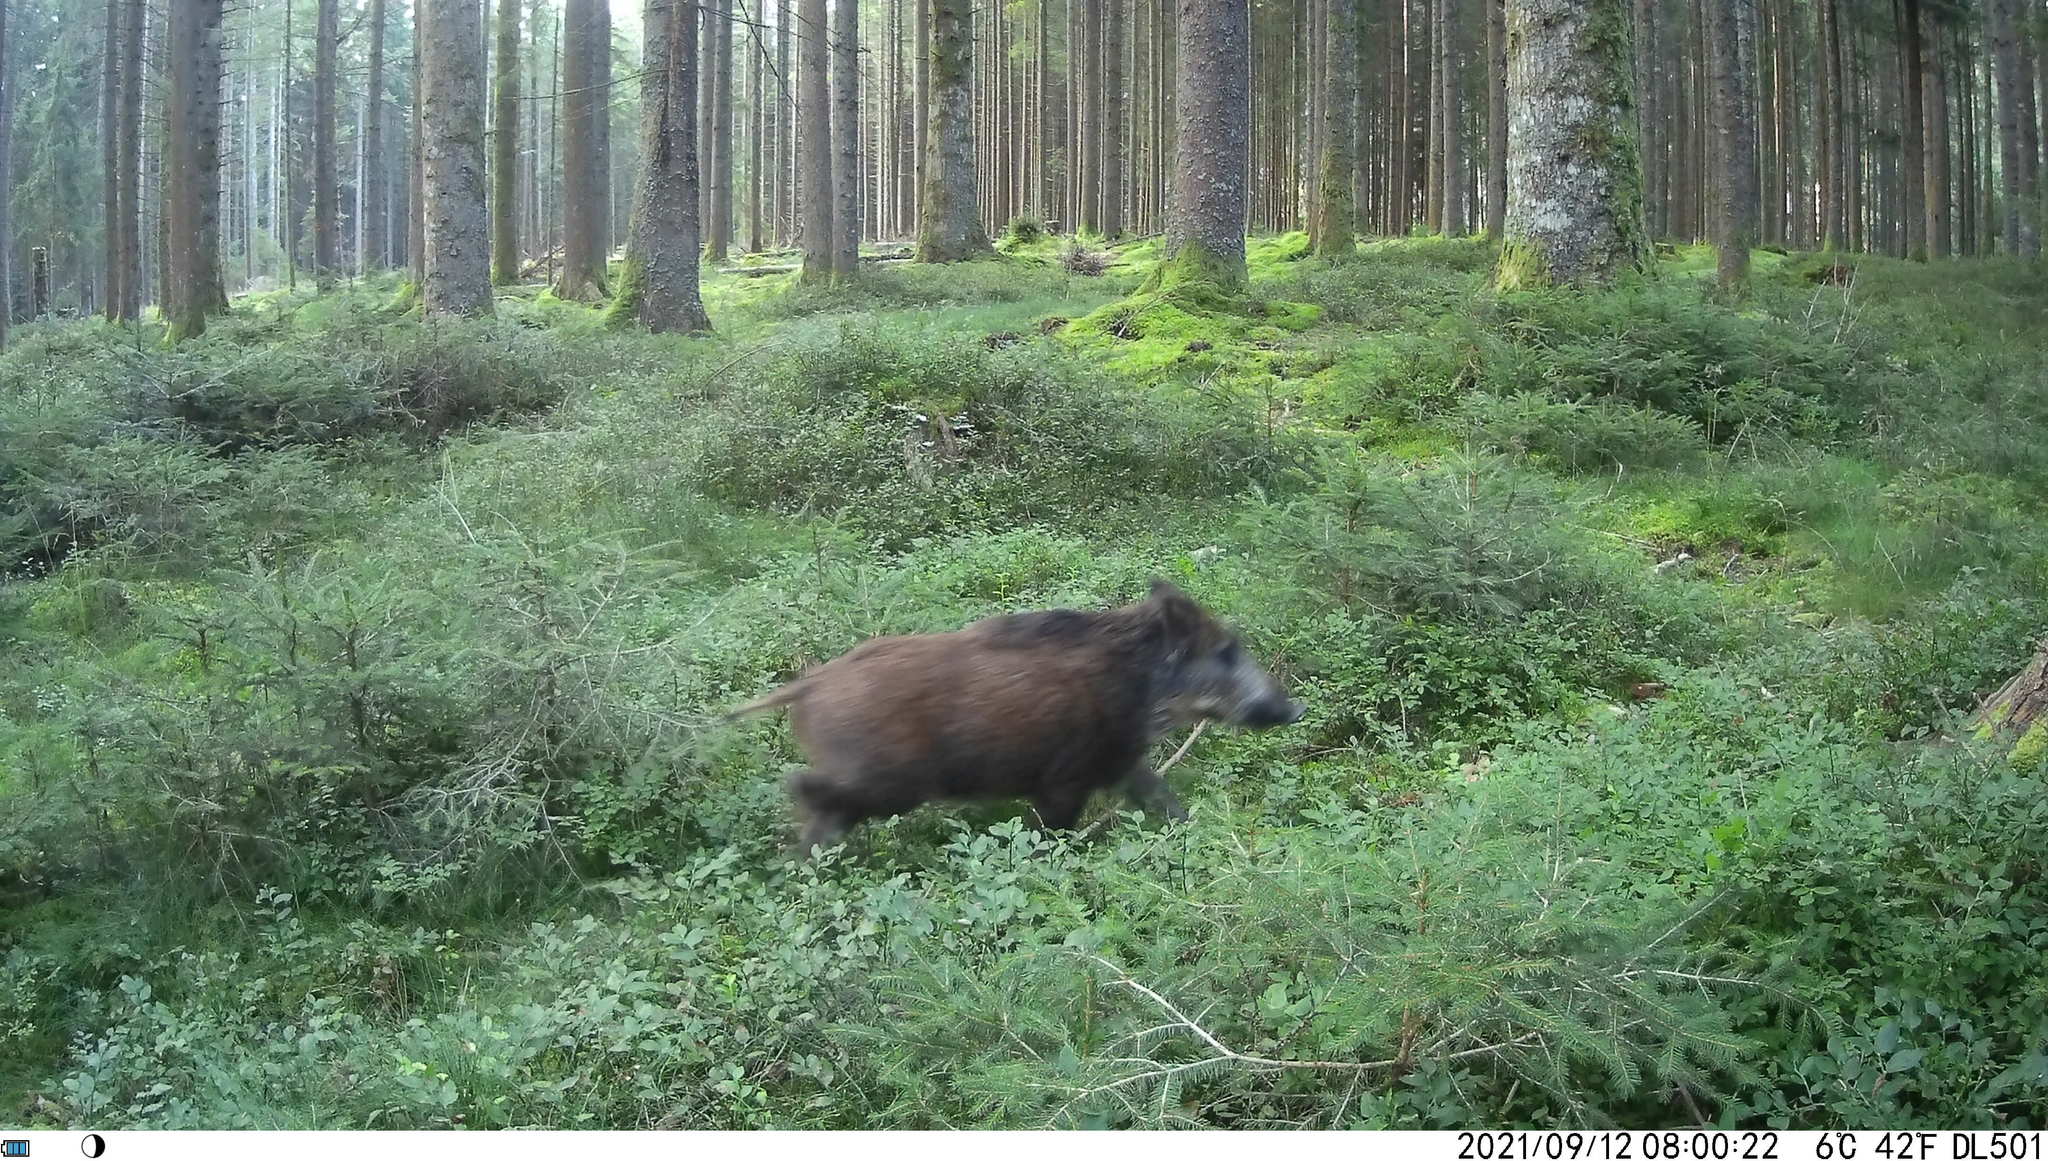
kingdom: Animalia
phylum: Chordata
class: Mammalia
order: Artiodactyla
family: Suidae
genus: Sus
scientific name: Sus scrofa
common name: Wild boar
